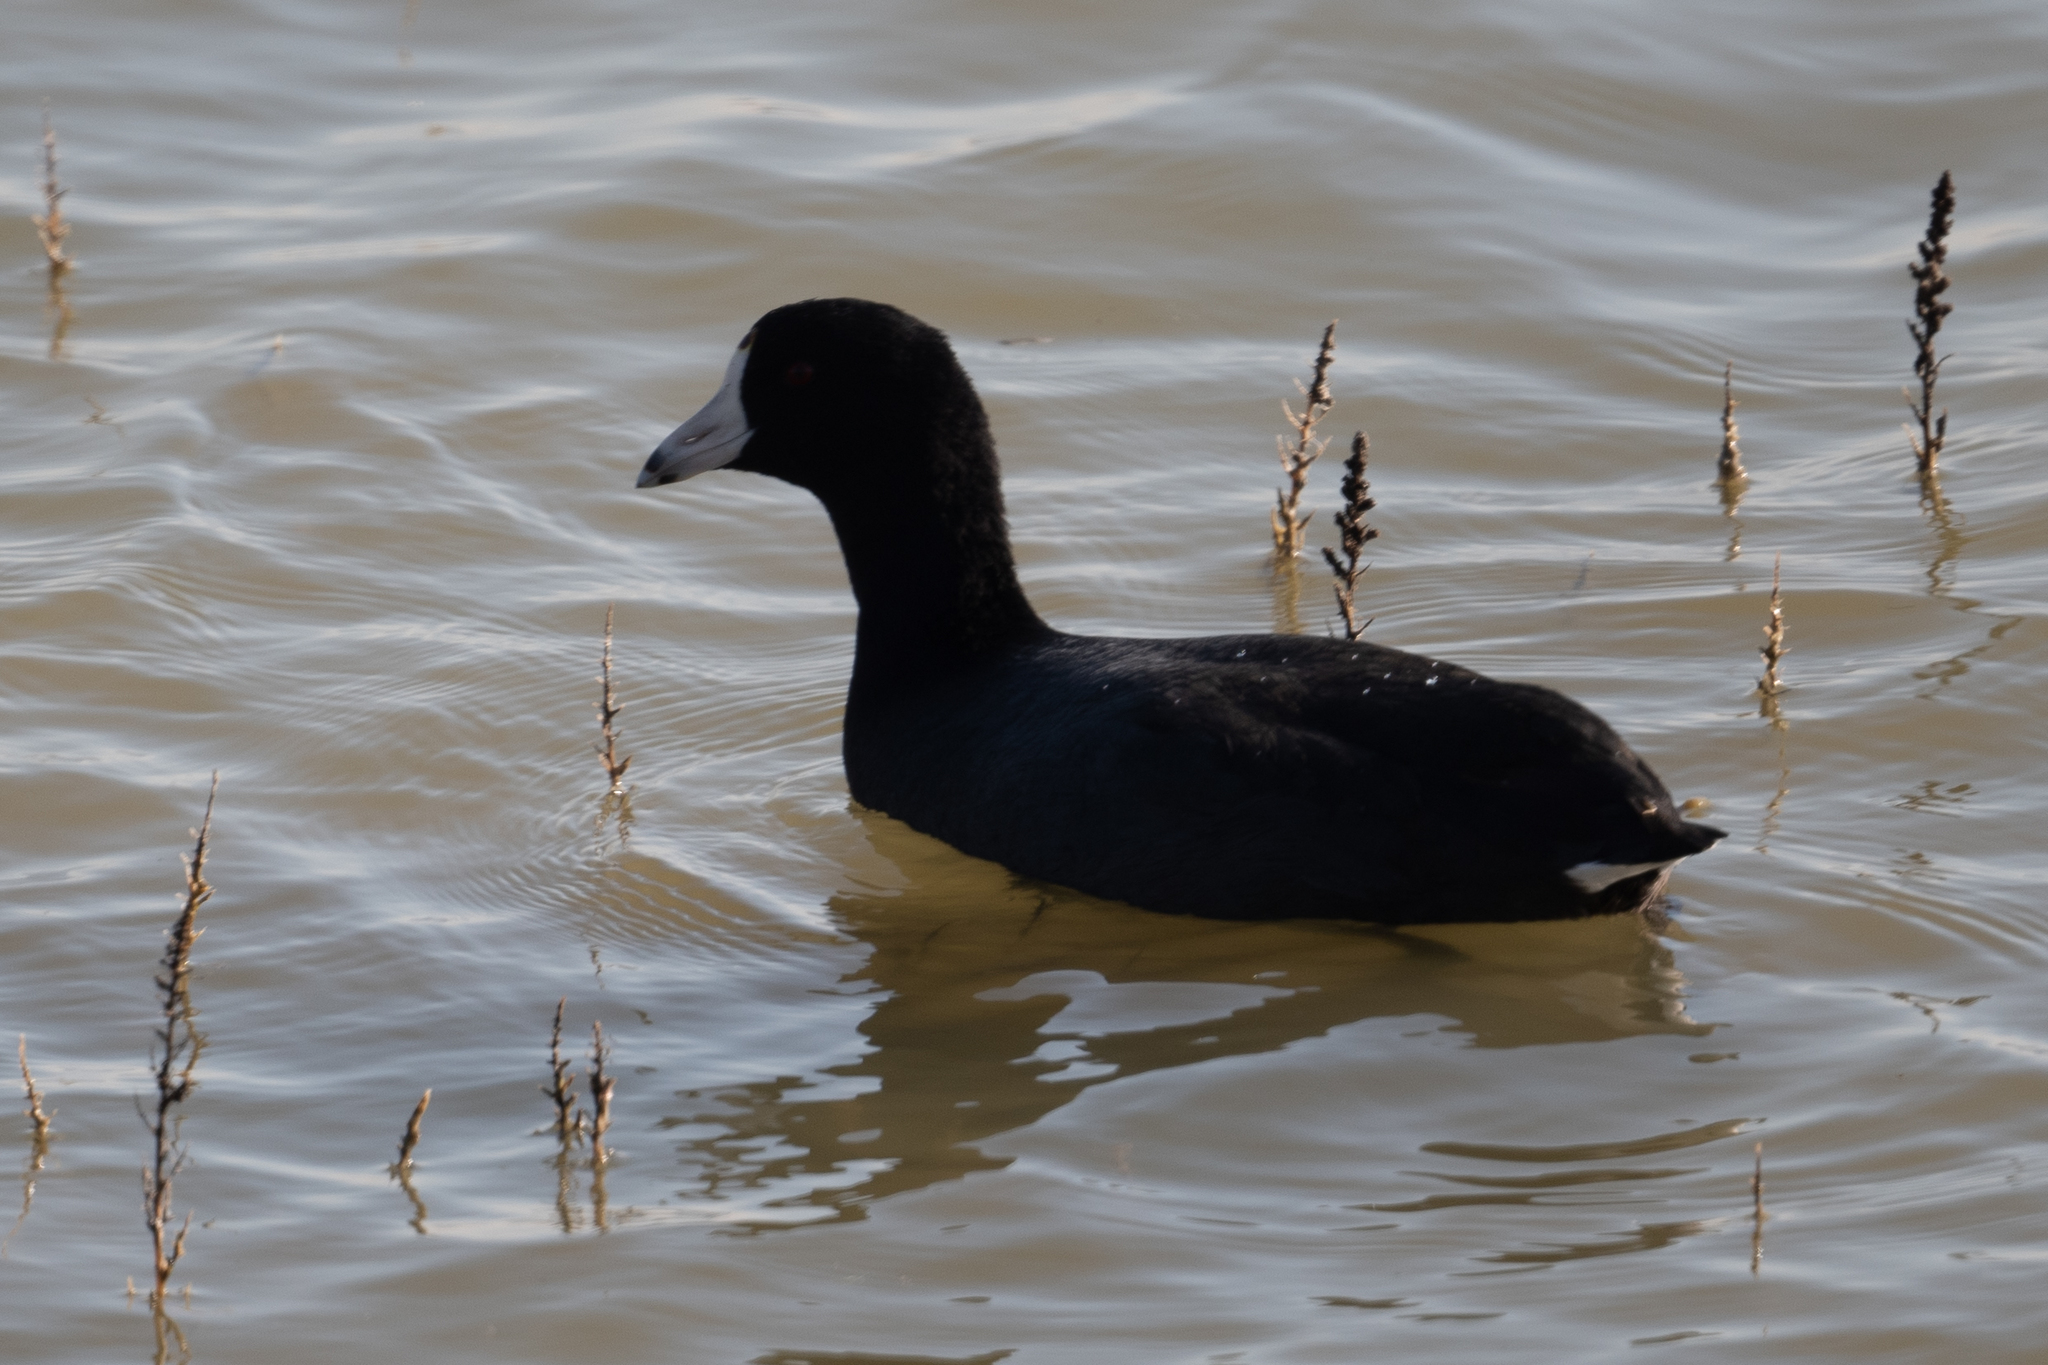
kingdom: Animalia
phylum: Chordata
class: Aves
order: Gruiformes
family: Rallidae
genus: Fulica
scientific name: Fulica americana
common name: American coot
